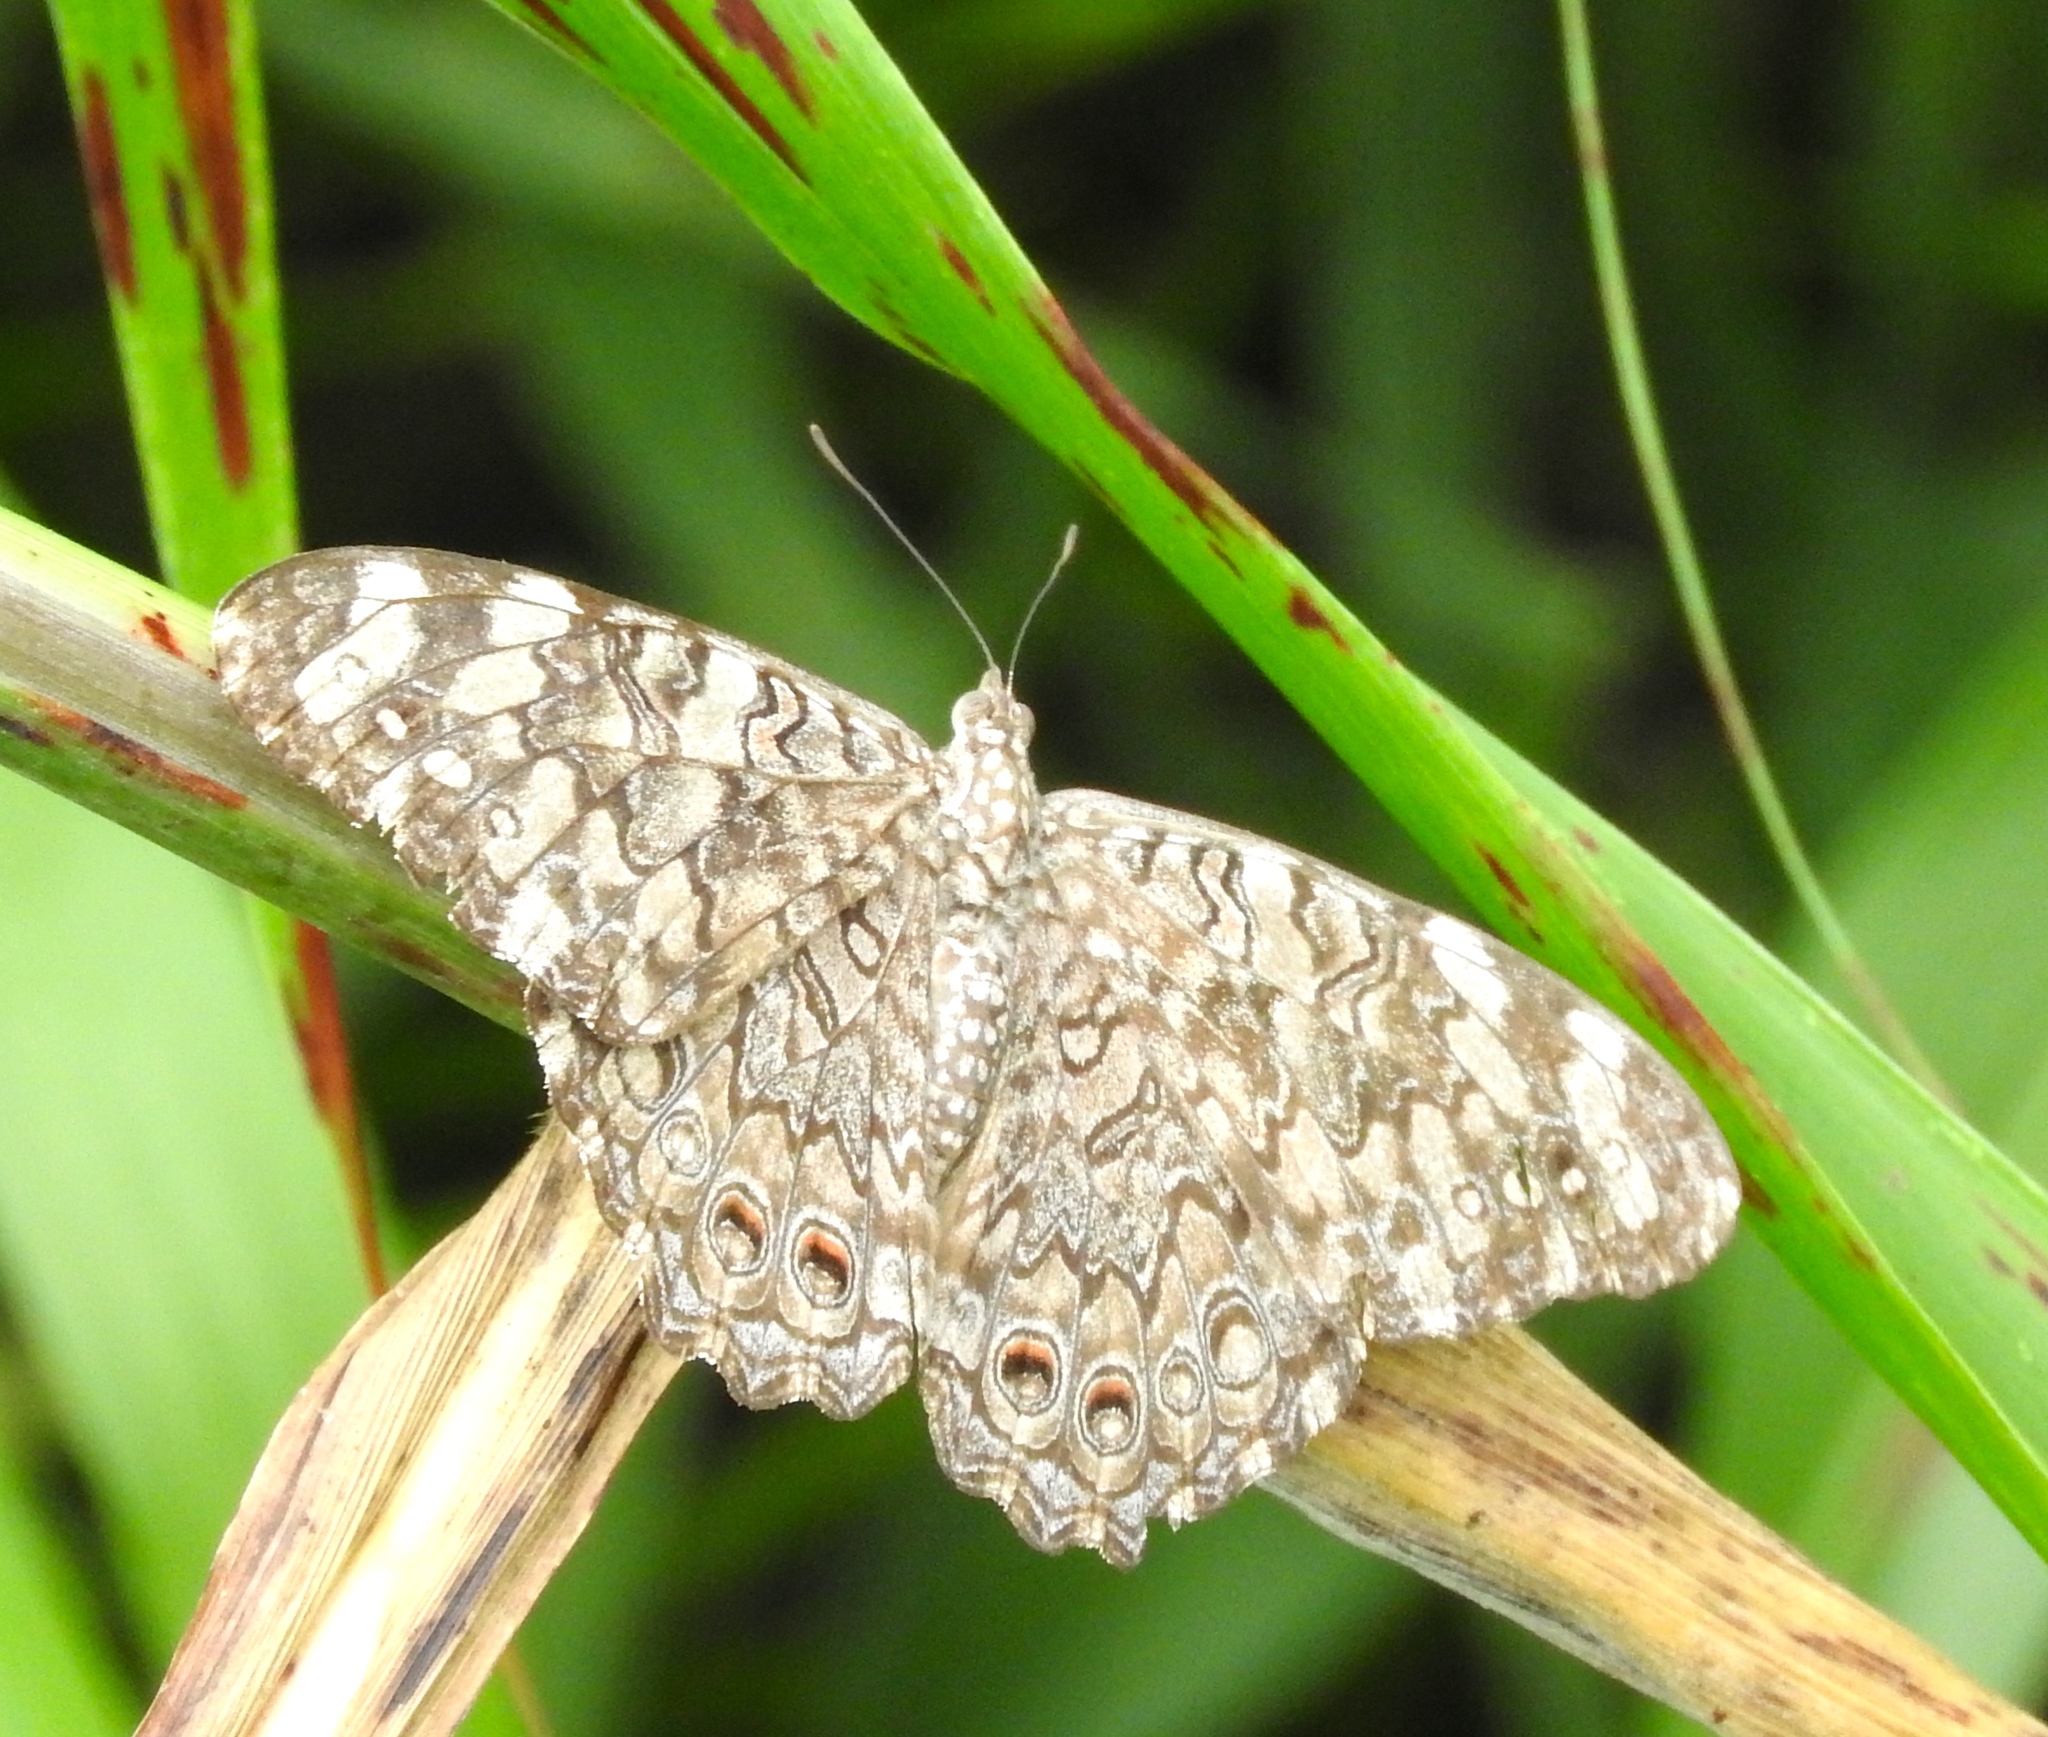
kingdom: Animalia
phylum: Arthropoda
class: Insecta
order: Lepidoptera
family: Nymphalidae
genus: Hamadryas
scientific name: Hamadryas februa
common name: Gray cracker
